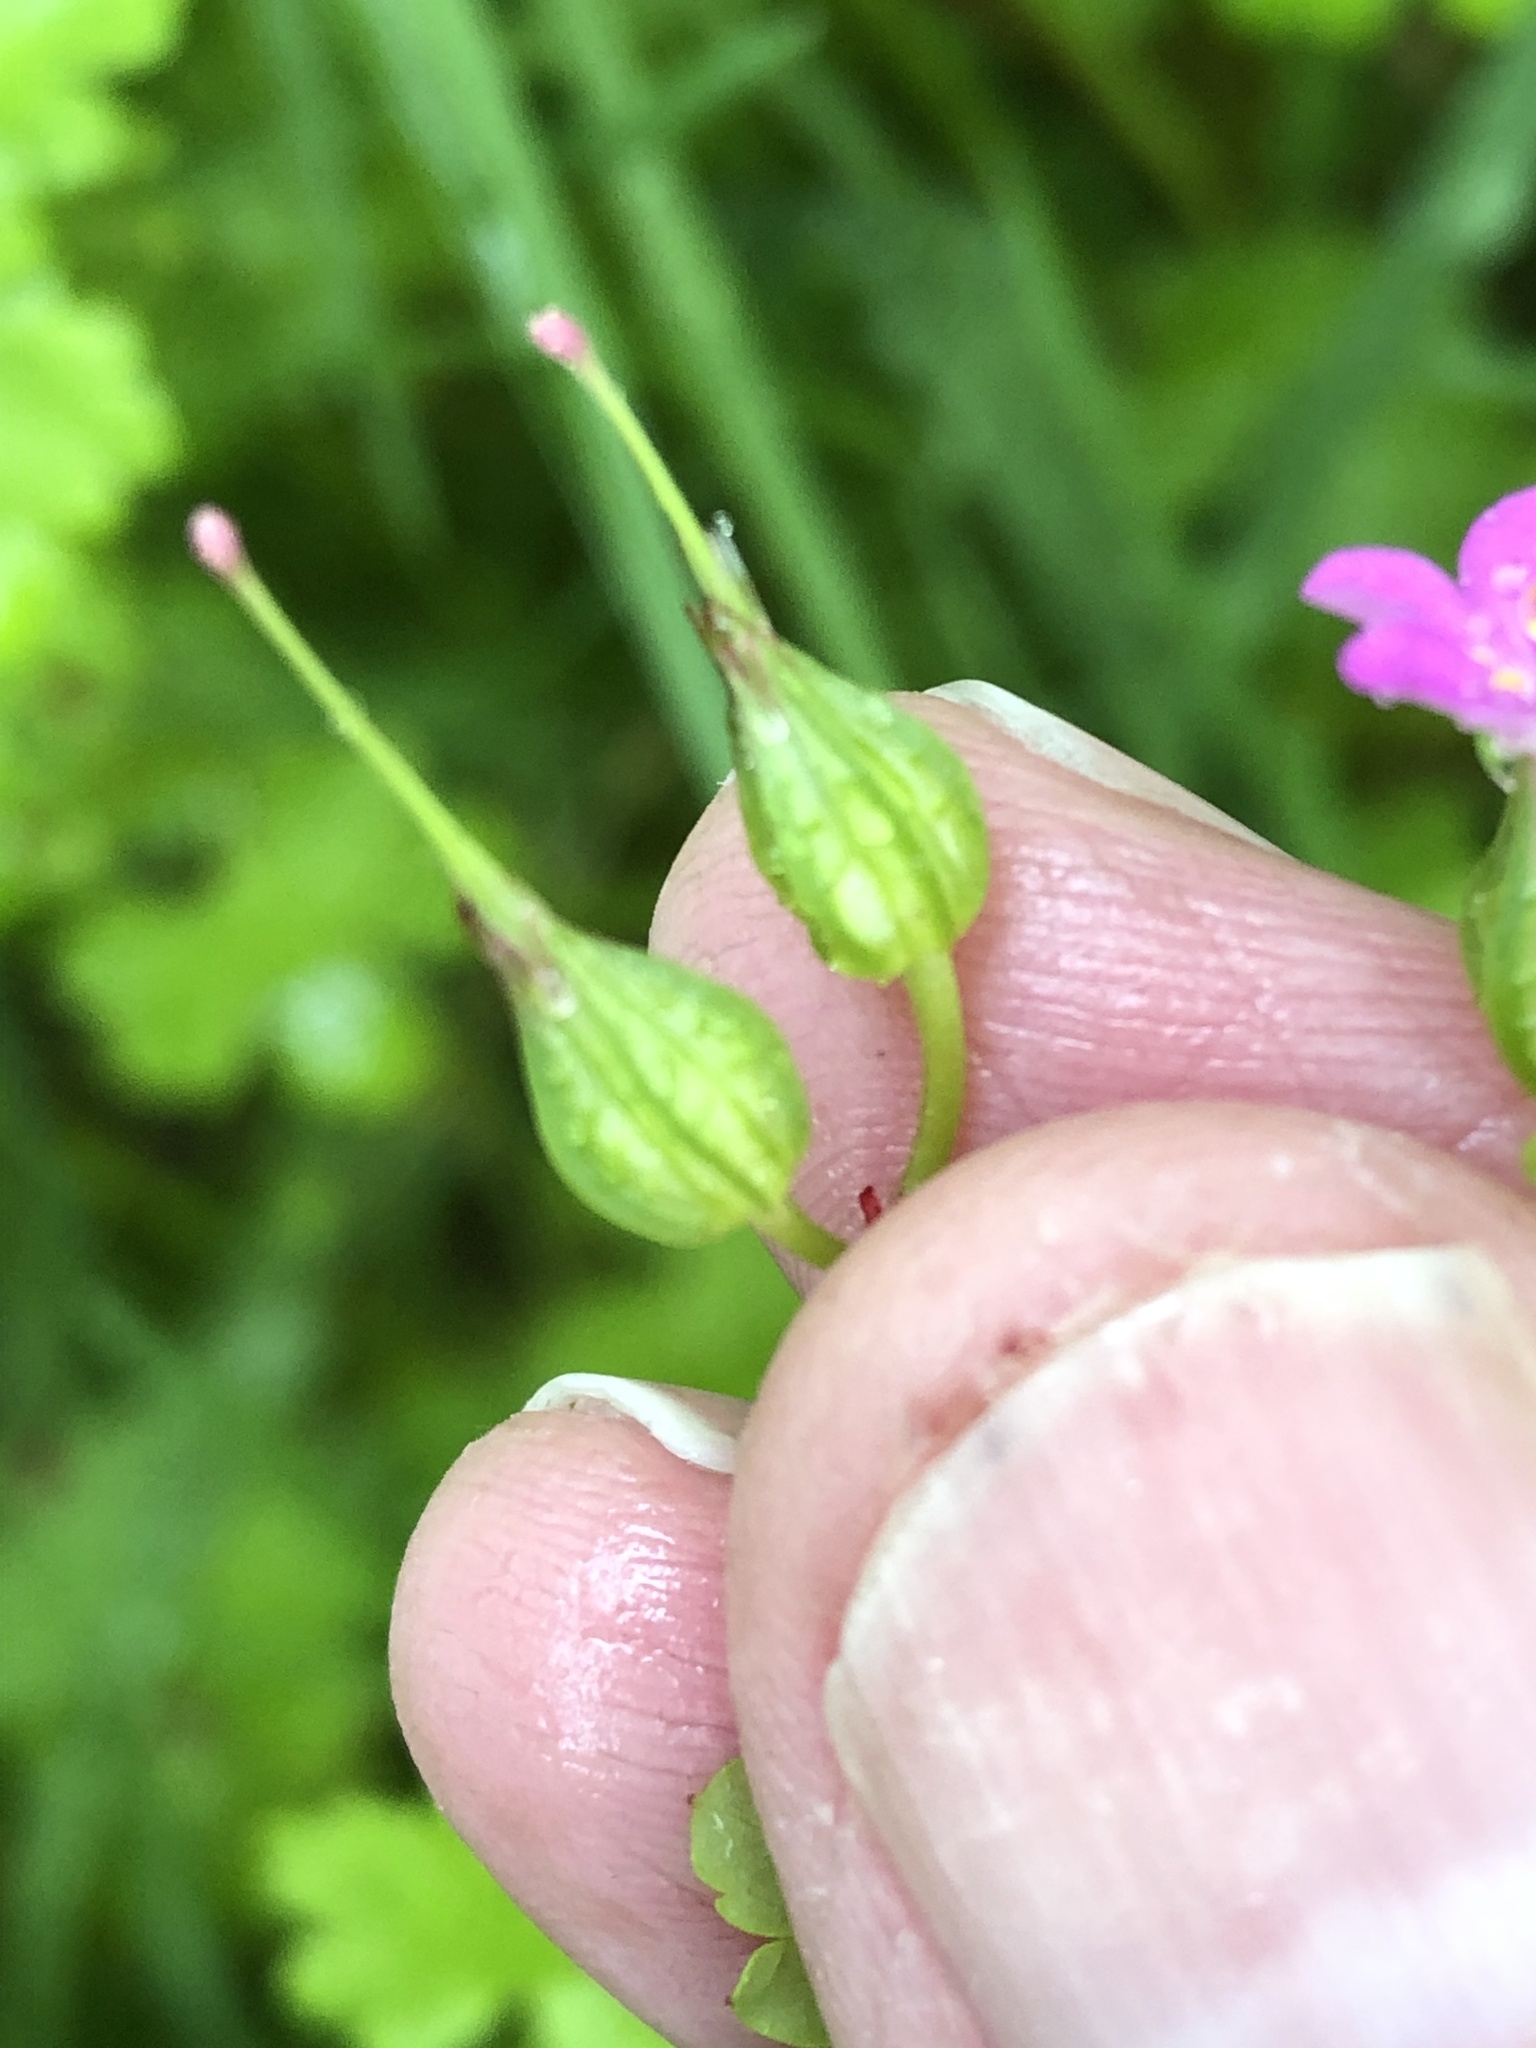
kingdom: Plantae
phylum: Tracheophyta
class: Magnoliopsida
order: Geraniales
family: Geraniaceae
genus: Geranium
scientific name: Geranium lucidum
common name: Shining crane's-bill
